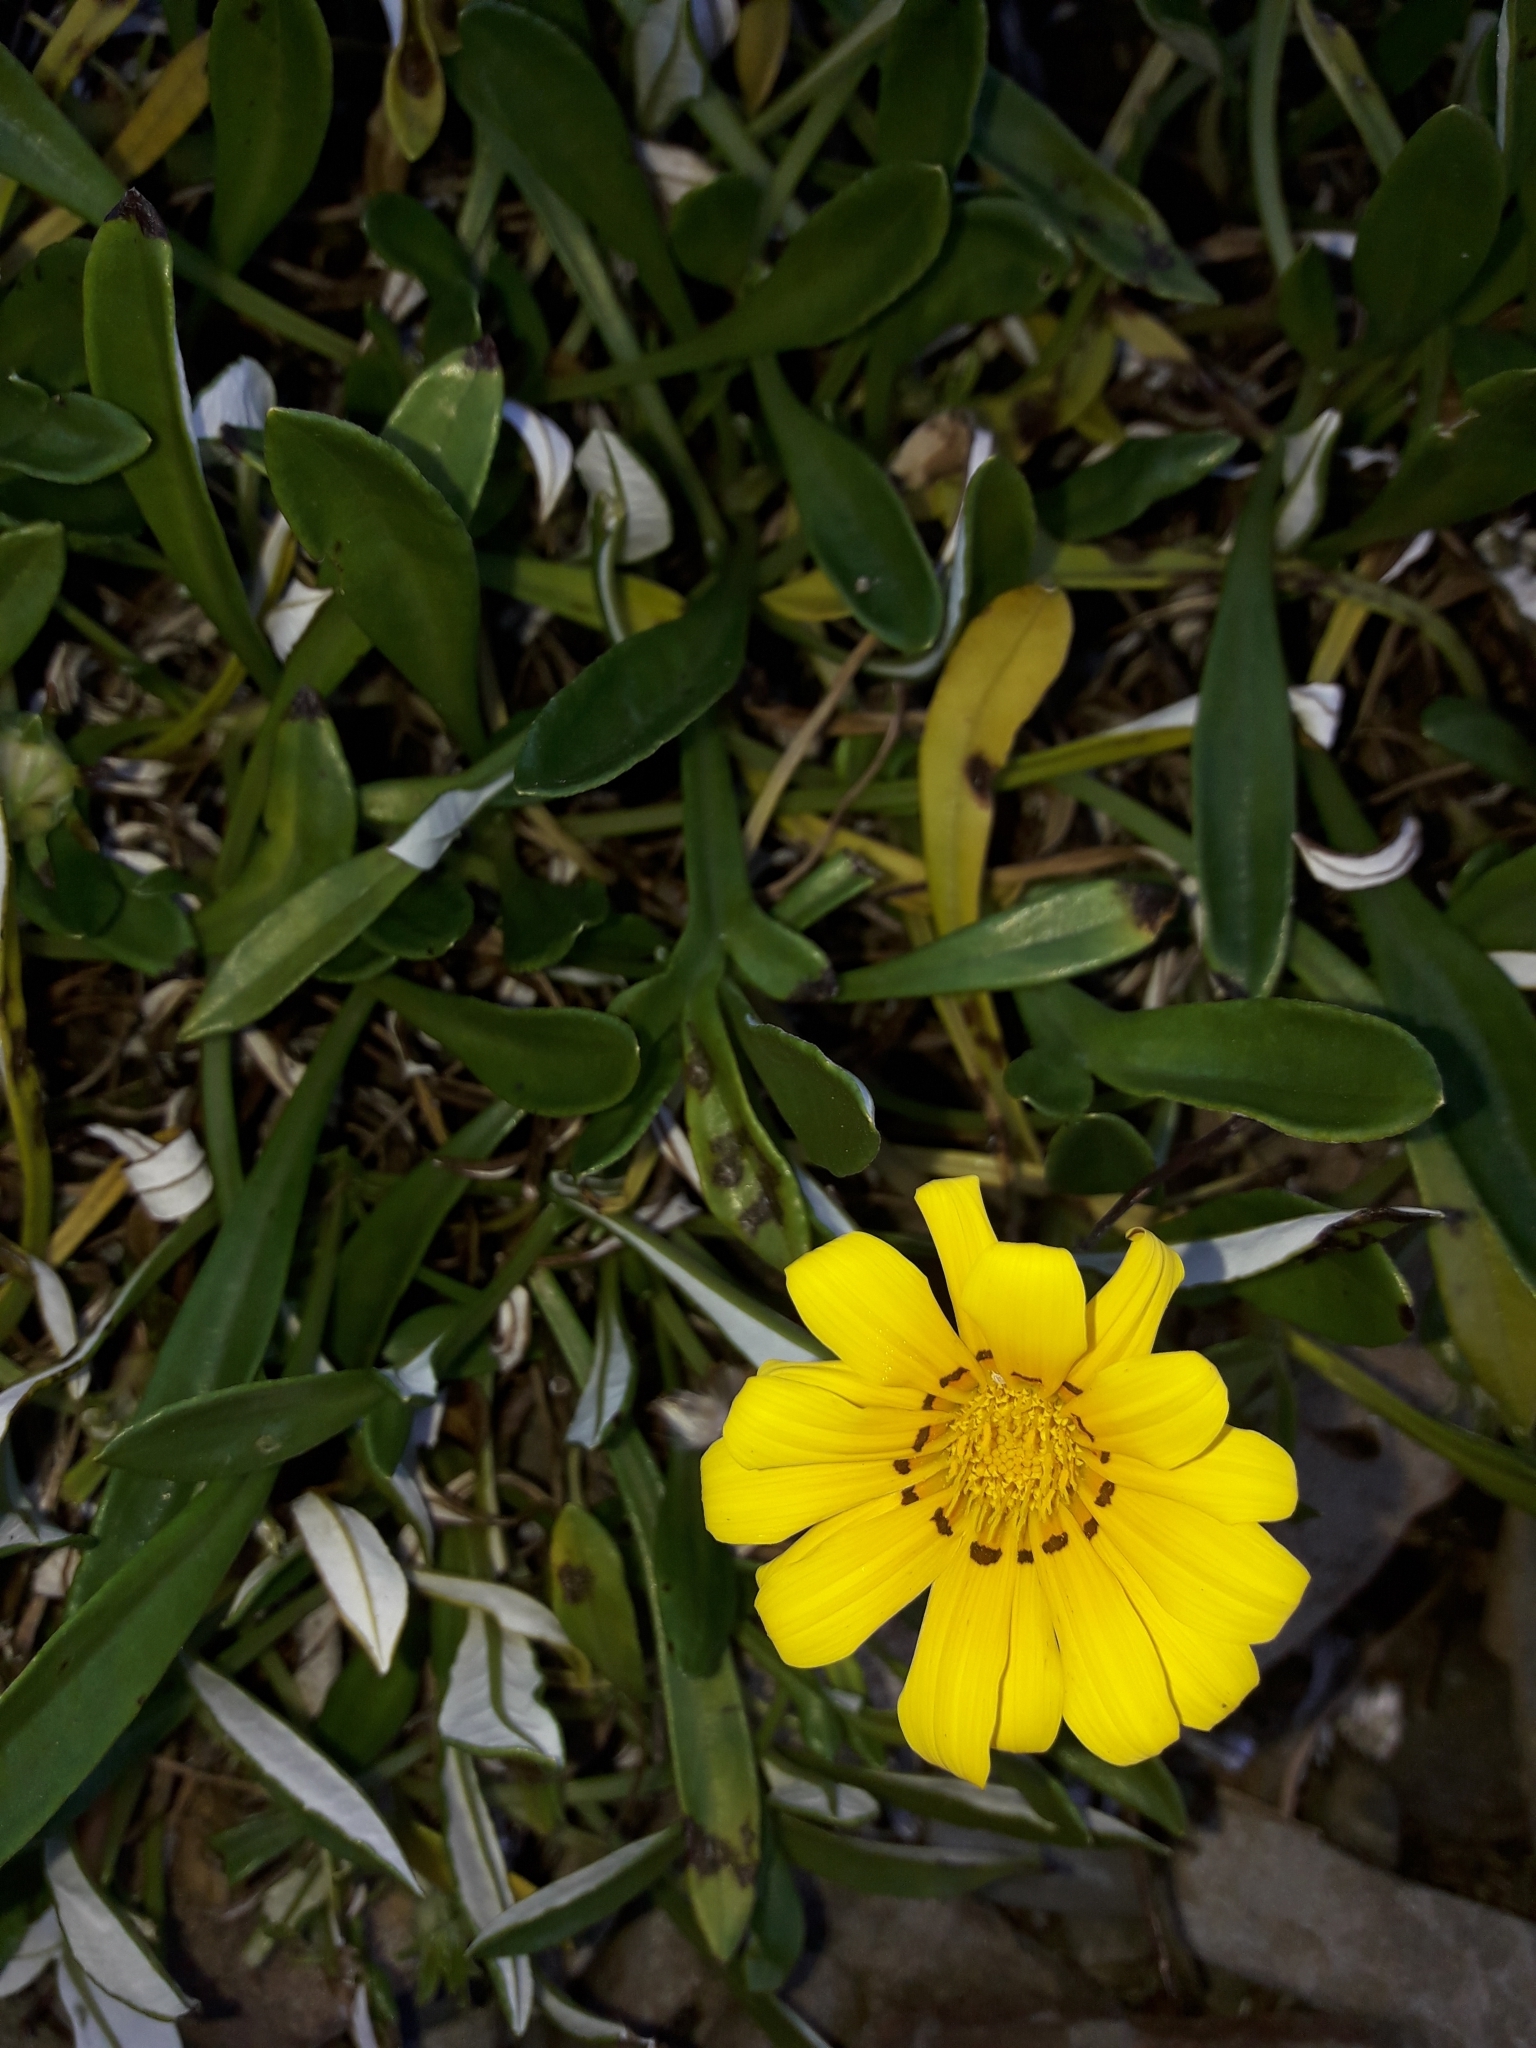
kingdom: Plantae
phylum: Tracheophyta
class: Magnoliopsida
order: Asterales
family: Asteraceae
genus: Gazania
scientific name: Gazania splendens
